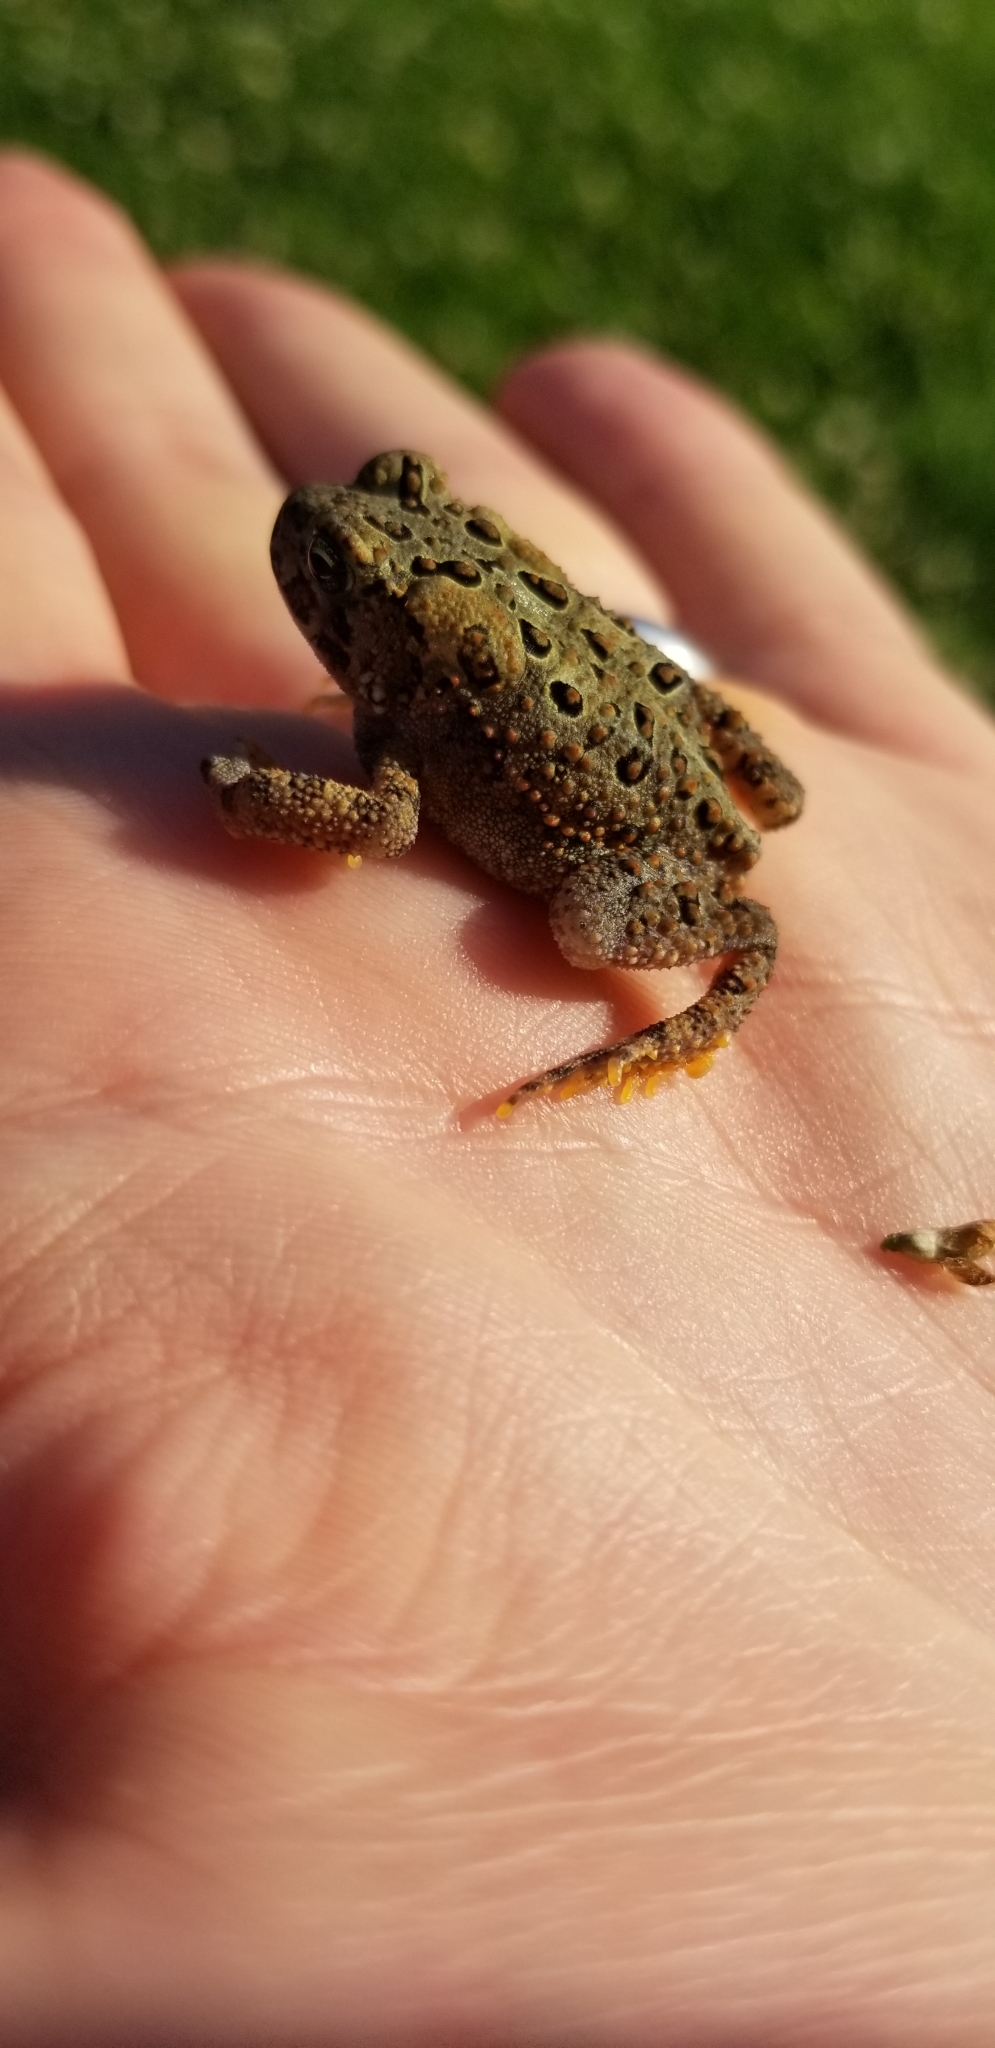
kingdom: Animalia
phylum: Chordata
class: Amphibia
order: Anura
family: Bufonidae
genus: Anaxyrus
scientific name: Anaxyrus americanus
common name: American toad
